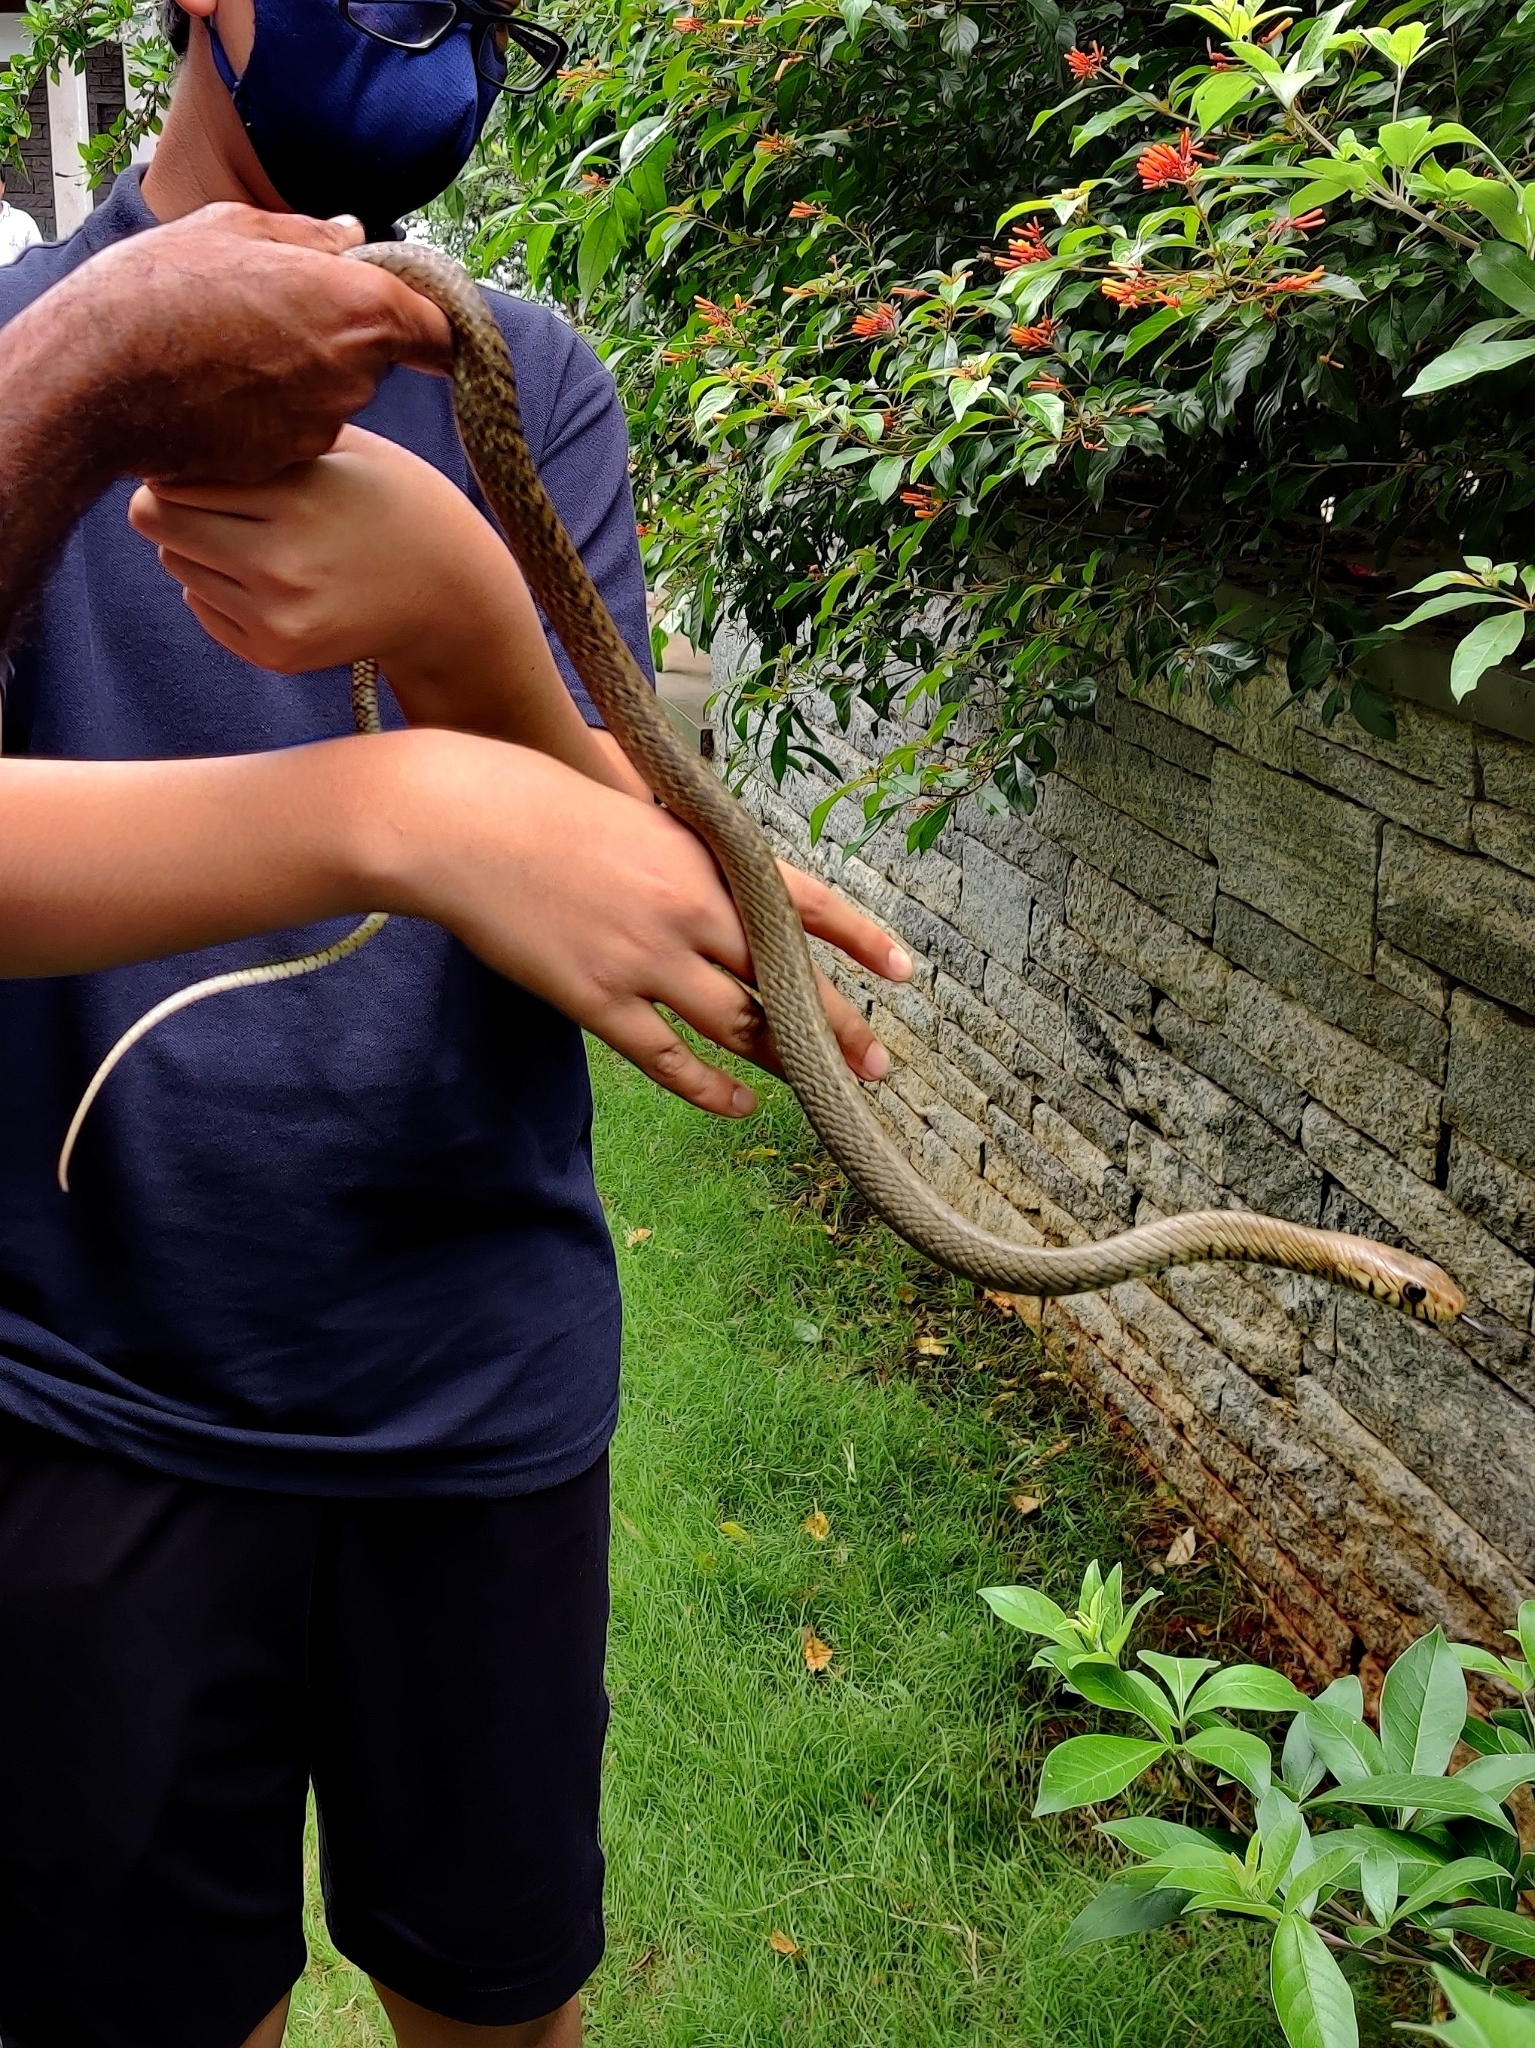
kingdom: Animalia
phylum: Chordata
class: Squamata
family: Colubridae
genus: Ptyas
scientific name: Ptyas mucosa
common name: Oriental ratsnake
